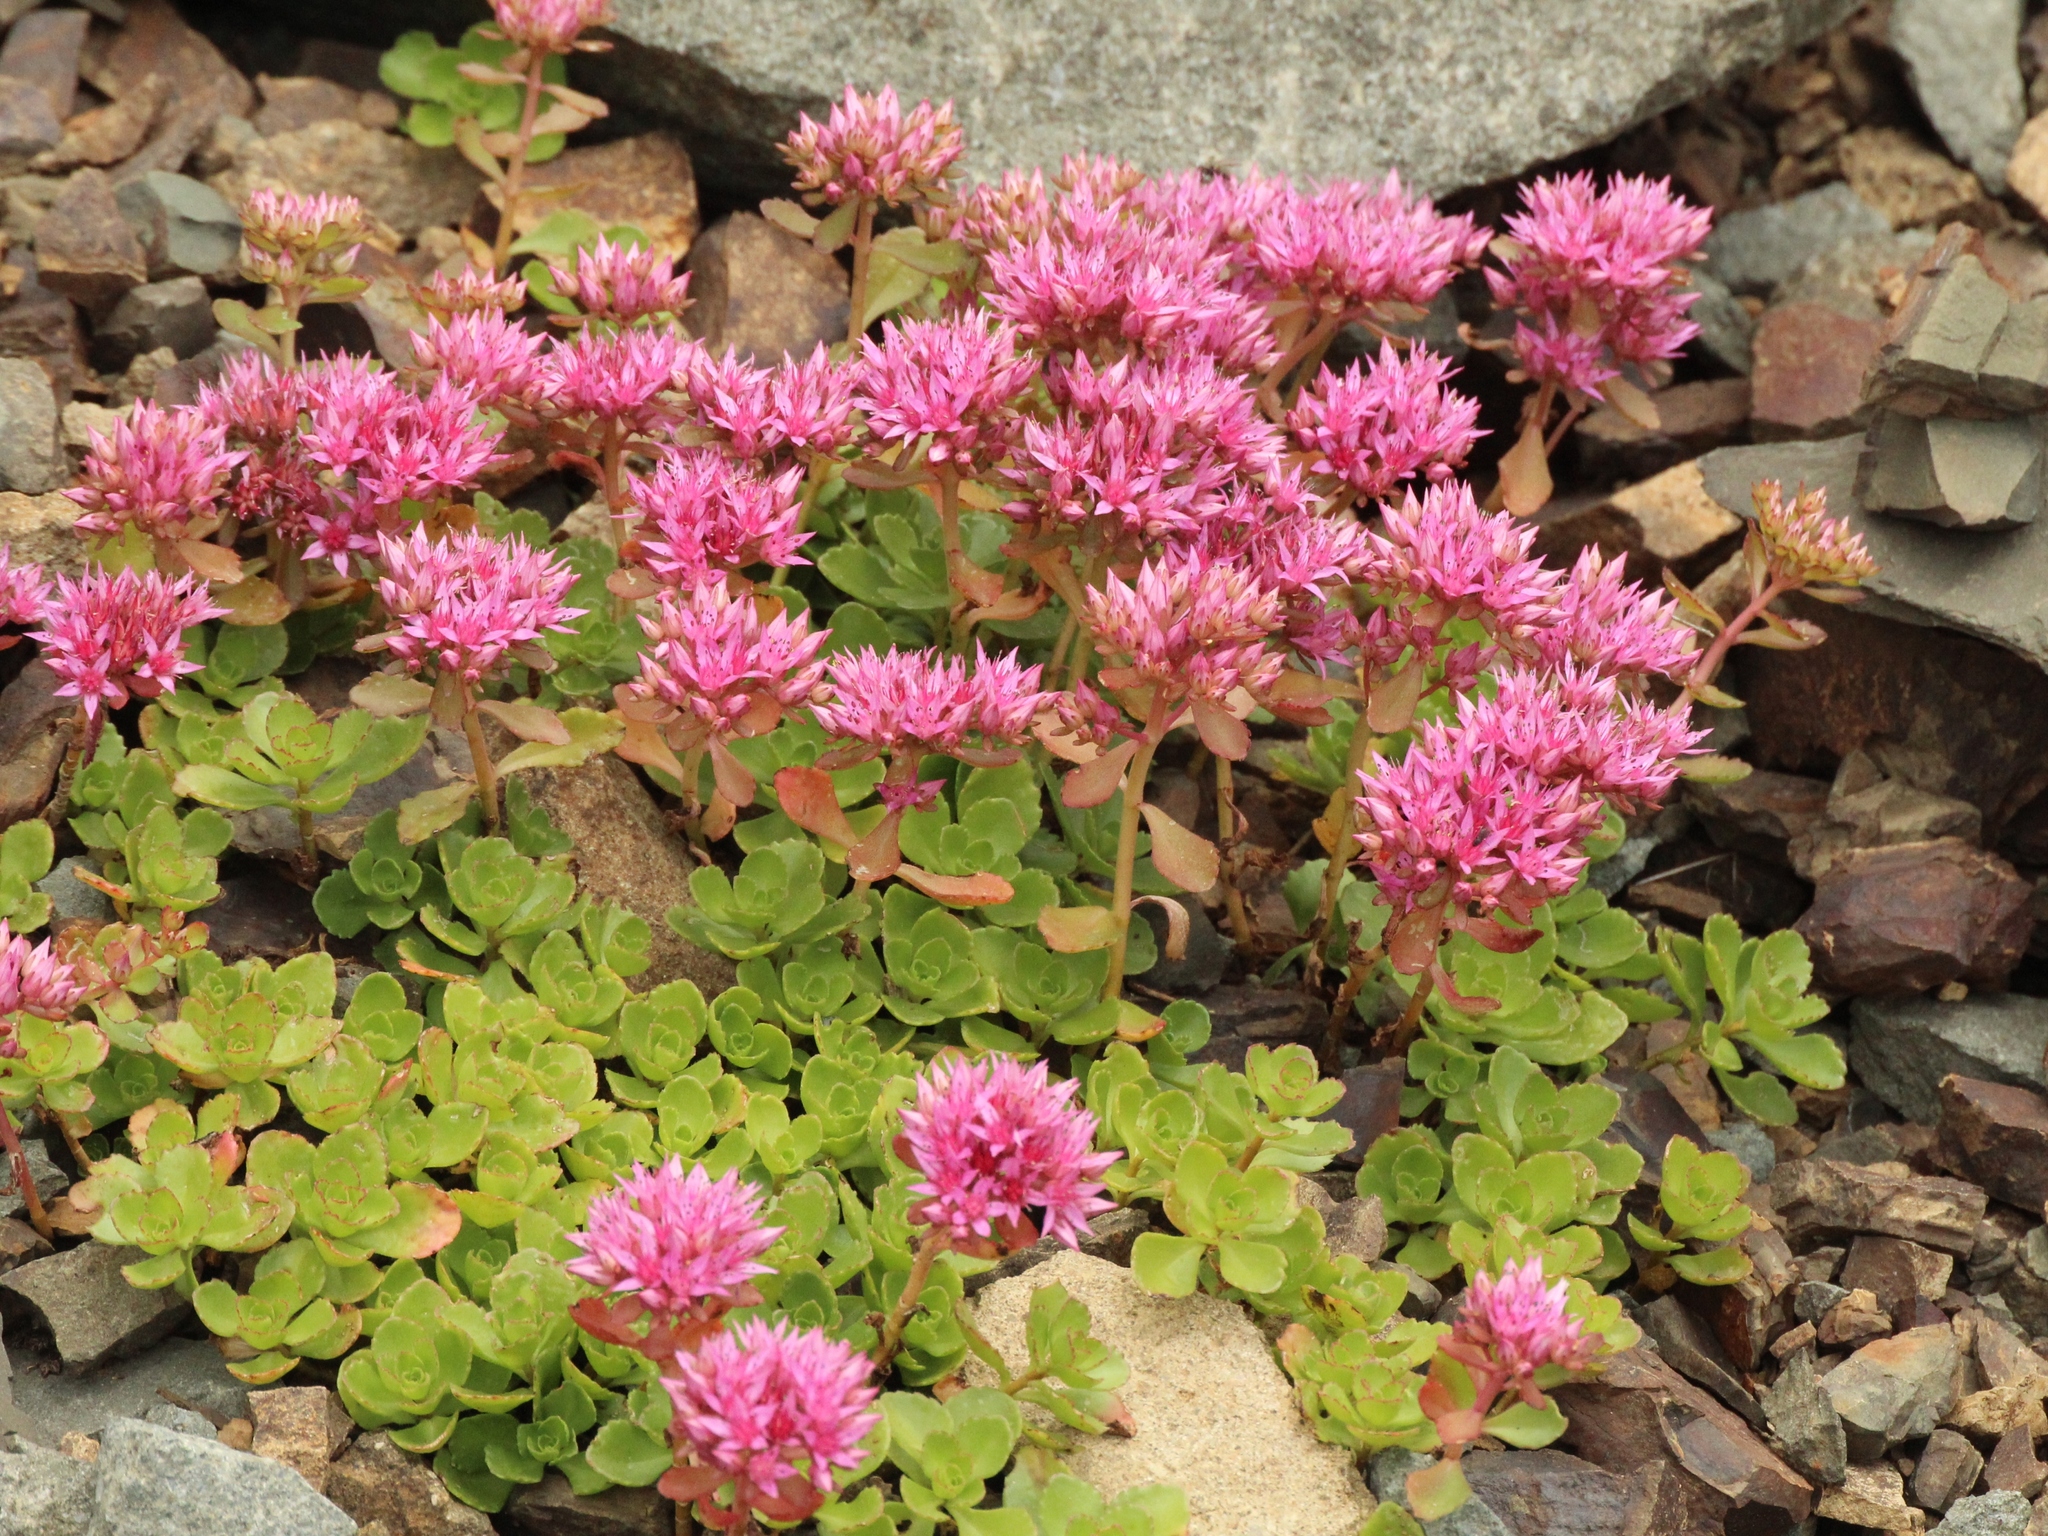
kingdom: Plantae
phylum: Tracheophyta
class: Magnoliopsida
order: Saxifragales
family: Crassulaceae
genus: Phedimus
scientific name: Phedimus spurius
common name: Caucasian stonecrop
